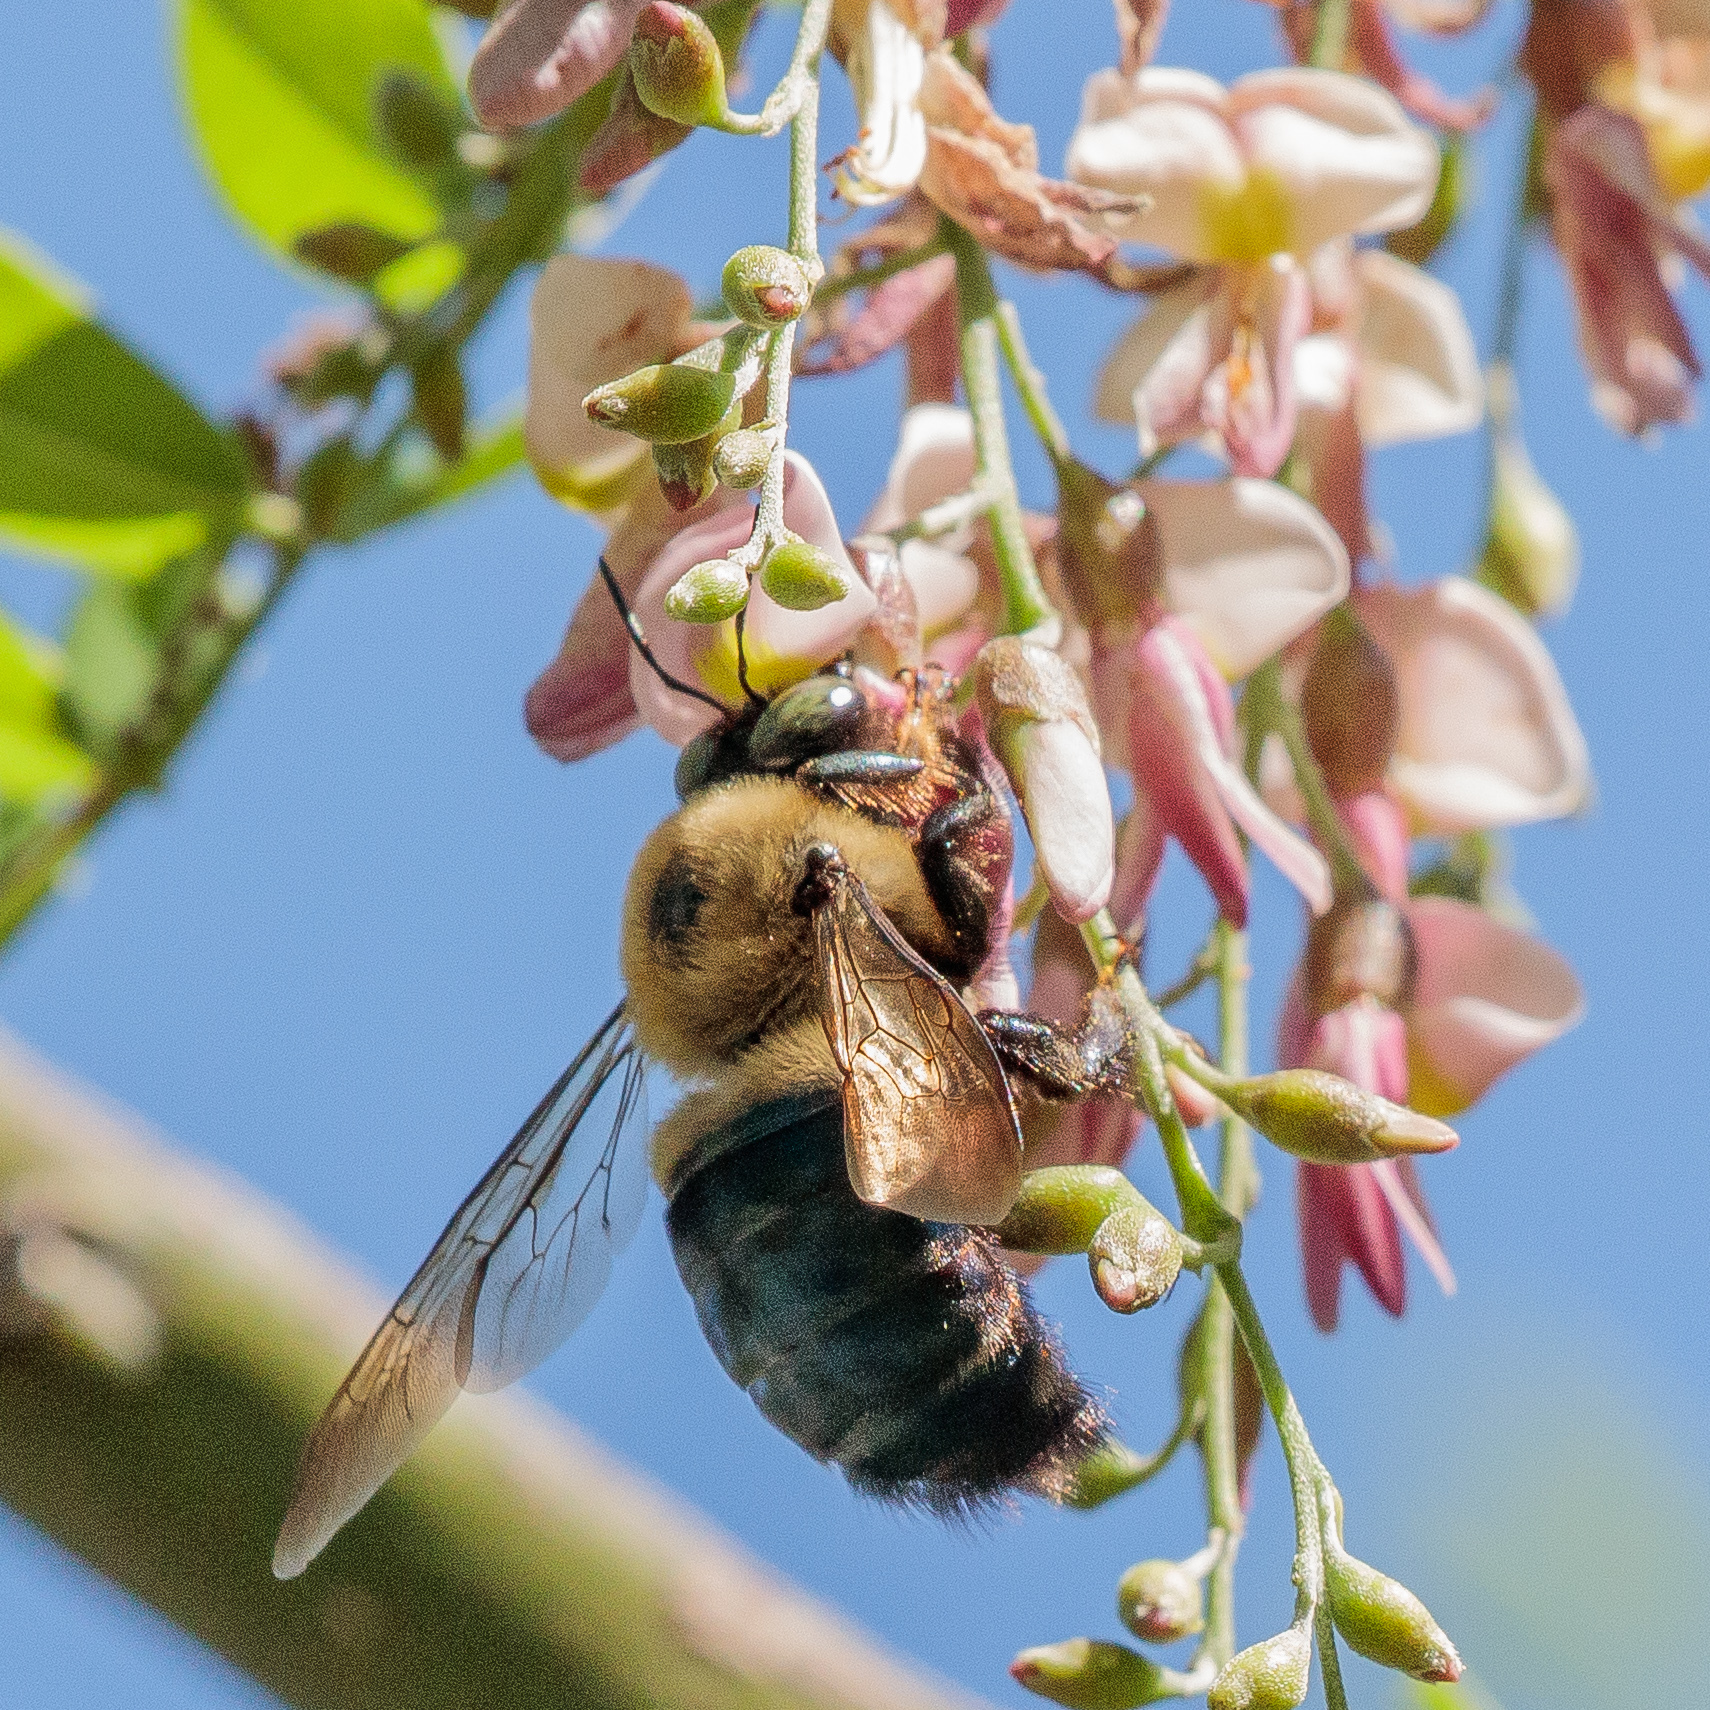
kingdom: Animalia
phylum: Arthropoda
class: Insecta
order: Hymenoptera
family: Apidae
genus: Xylocopa
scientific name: Xylocopa virginica
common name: Carpenter bee
